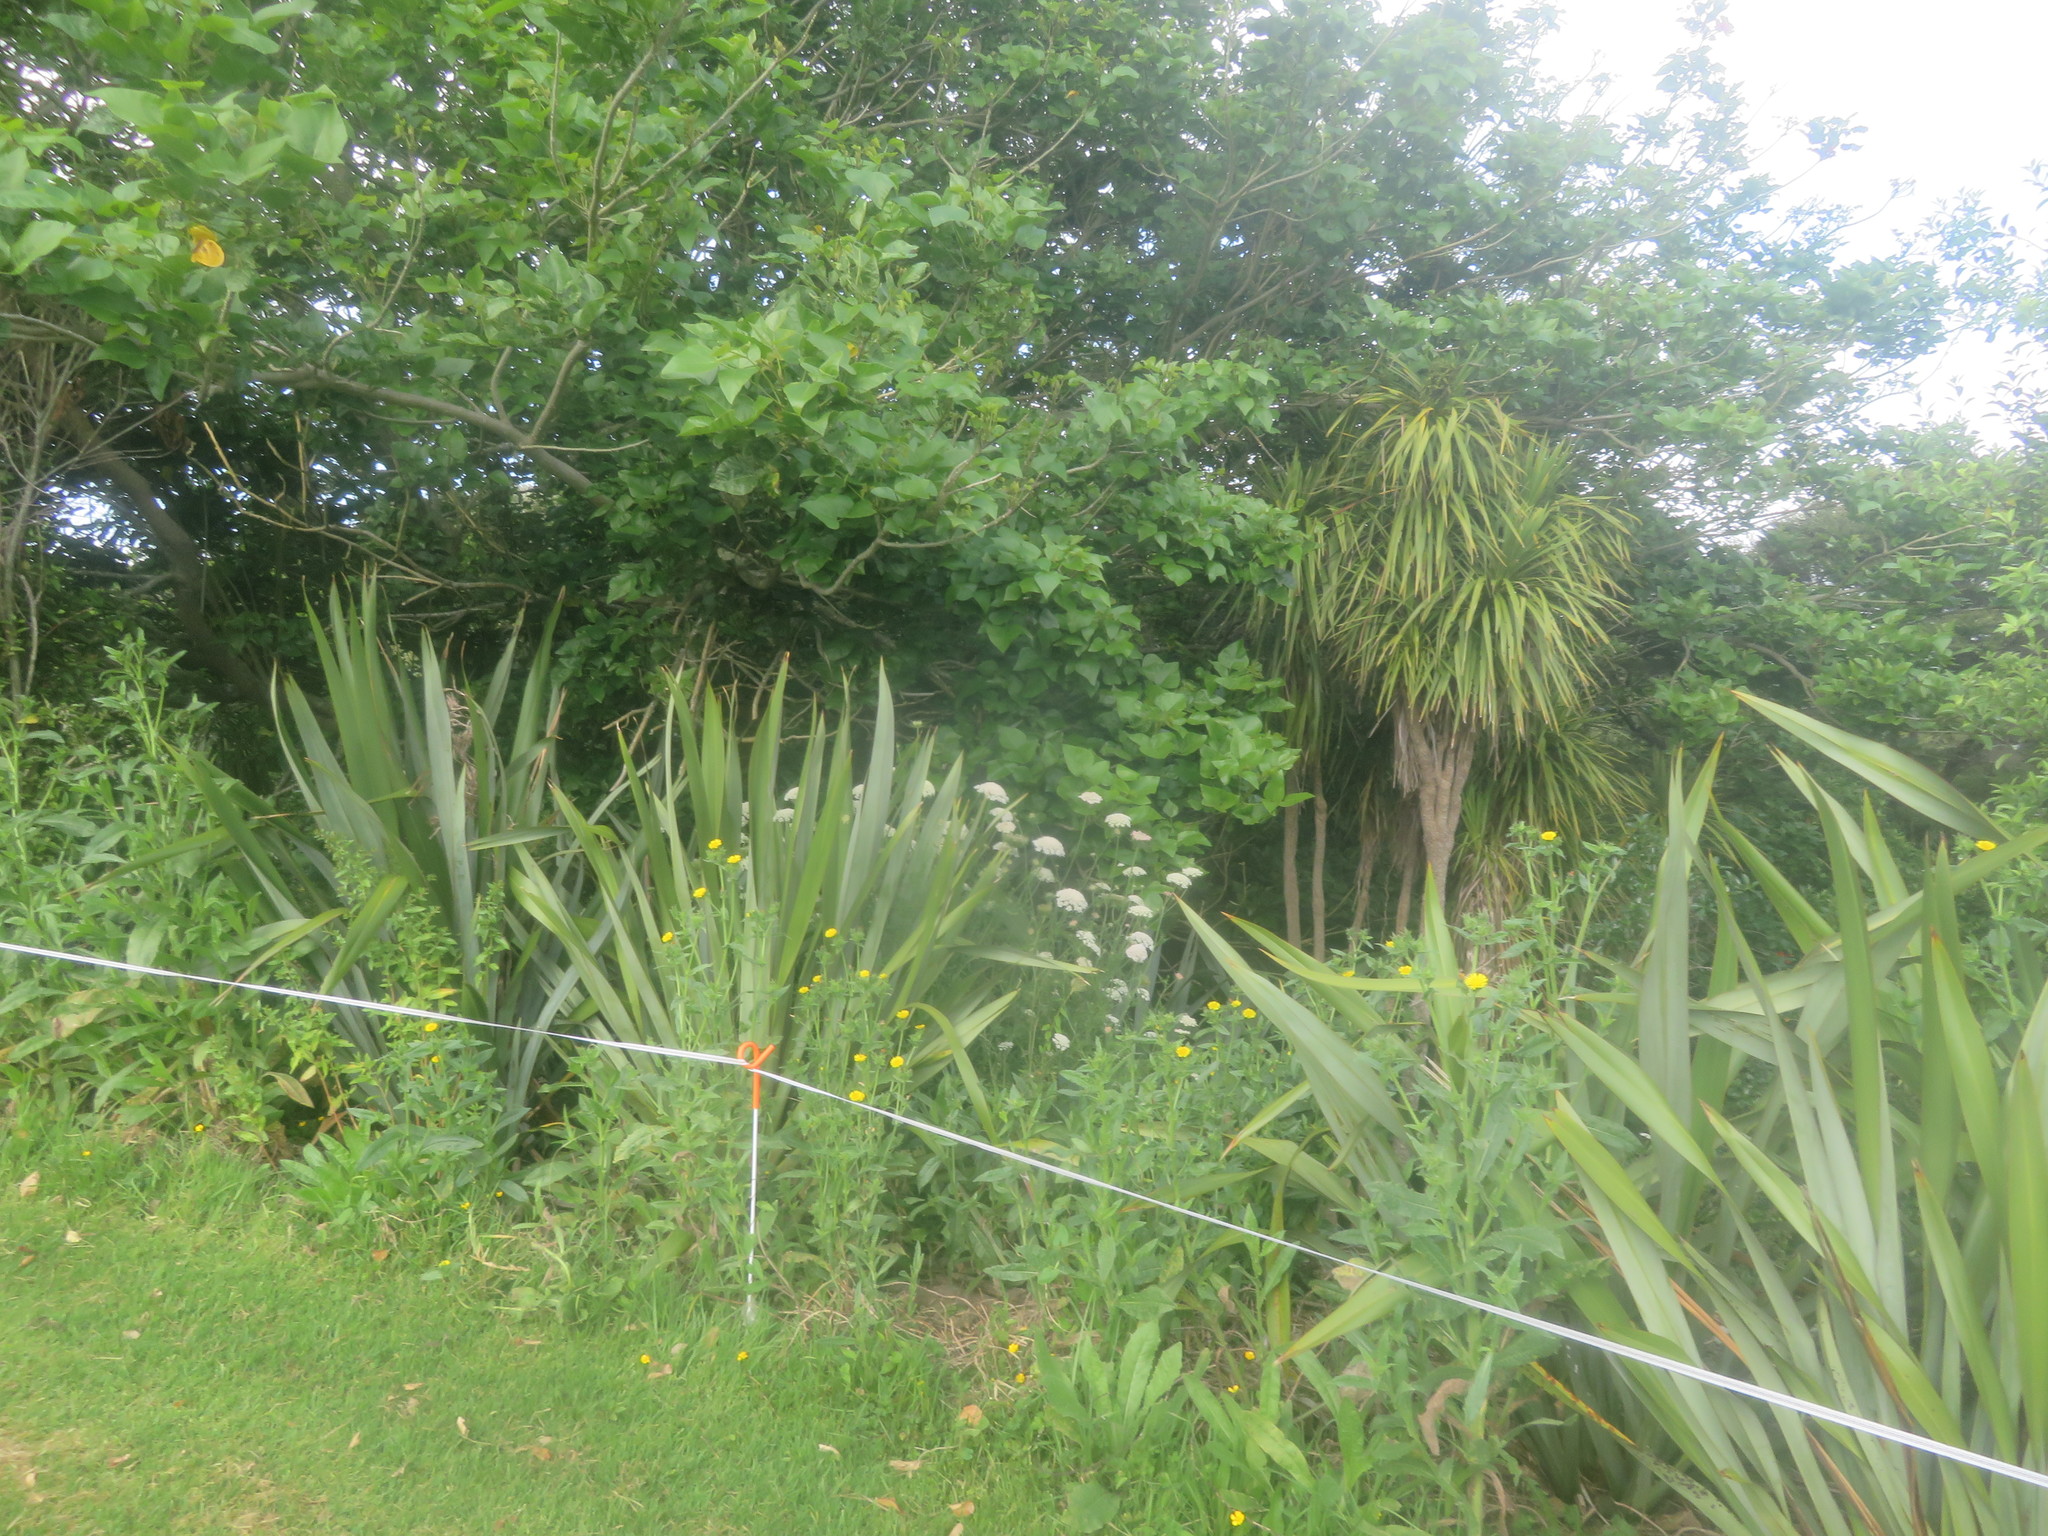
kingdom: Plantae
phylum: Tracheophyta
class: Magnoliopsida
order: Apiales
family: Apiaceae
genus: Daucus
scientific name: Daucus carota
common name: Wild carrot
